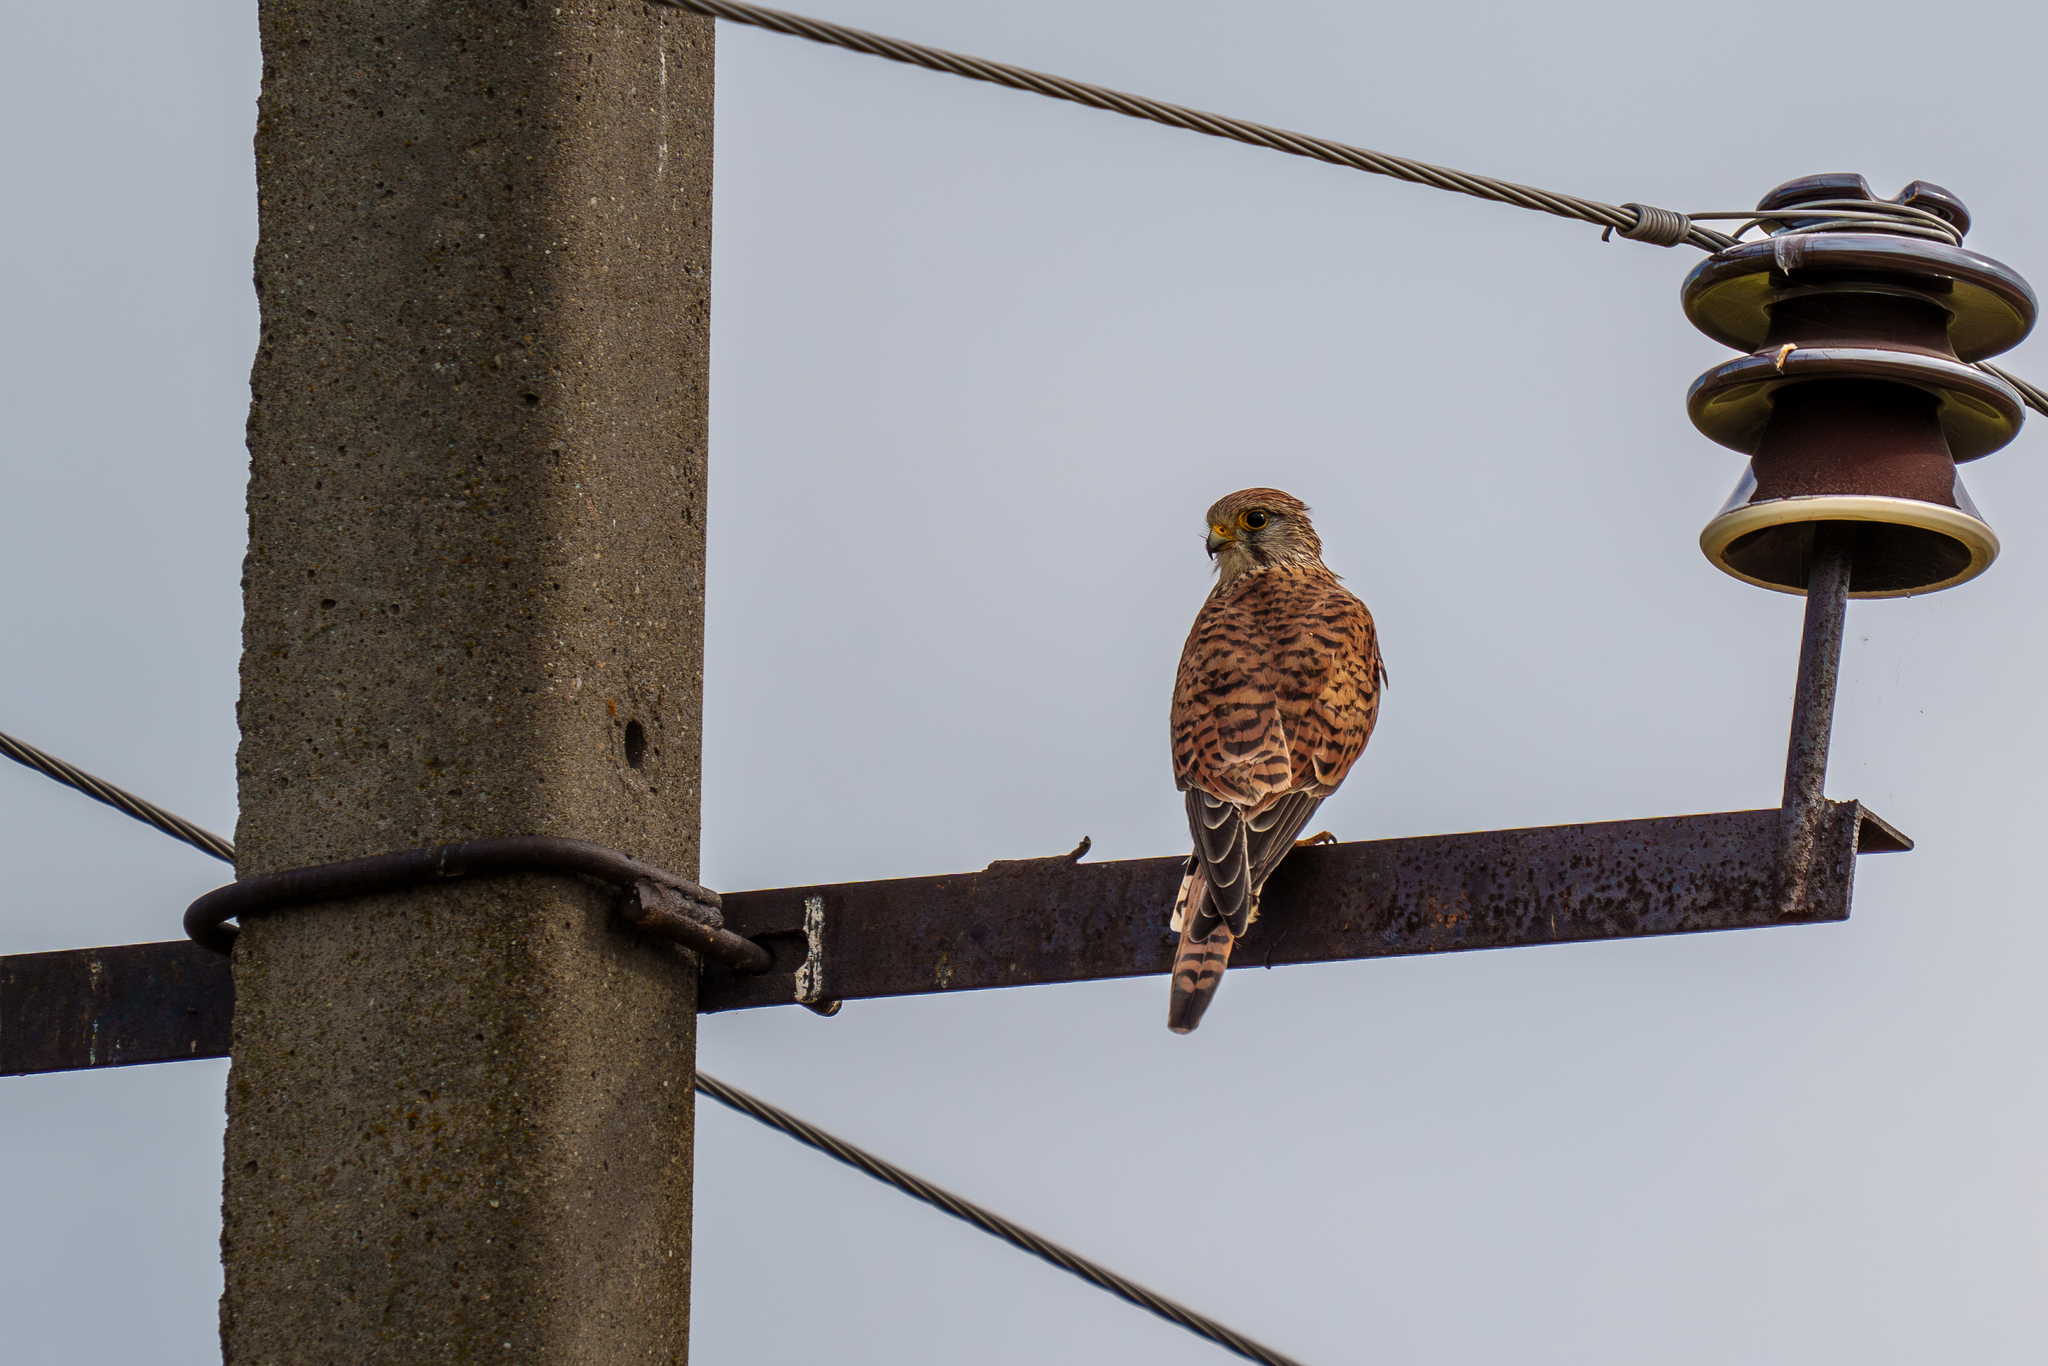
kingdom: Animalia
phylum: Chordata
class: Aves
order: Falconiformes
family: Falconidae
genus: Falco
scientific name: Falco tinnunculus
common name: Common kestrel
